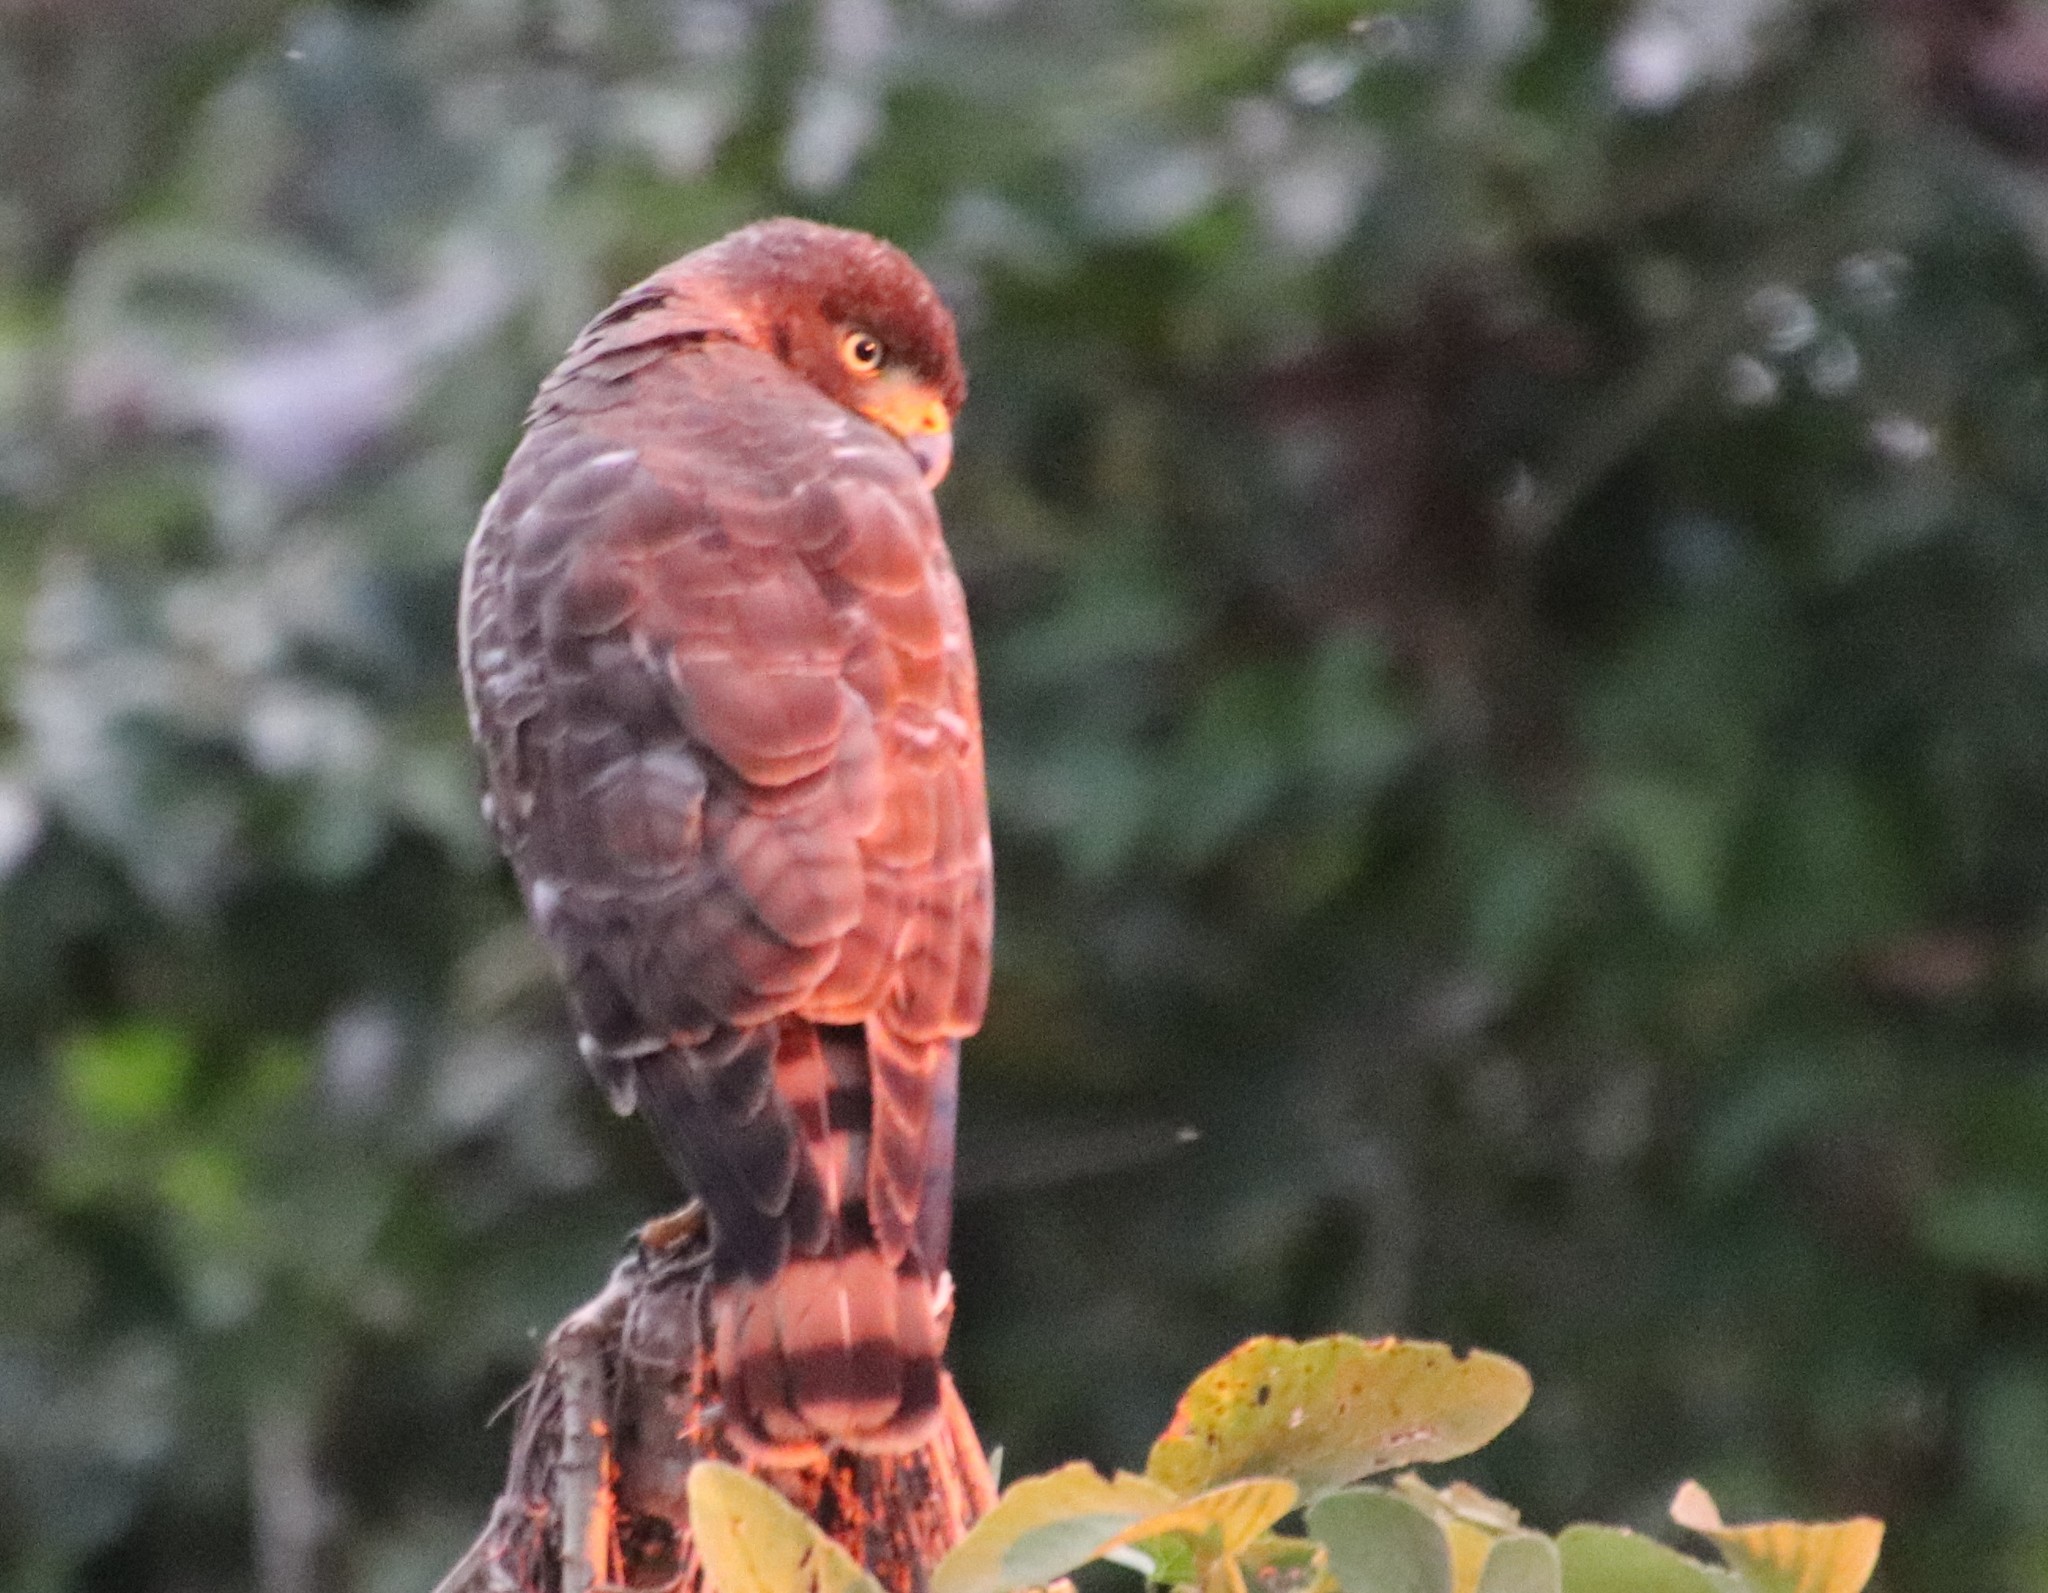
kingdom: Animalia
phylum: Chordata
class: Aves
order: Accipitriformes
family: Accipitridae
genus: Rupornis
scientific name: Rupornis magnirostris
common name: Roadside hawk
